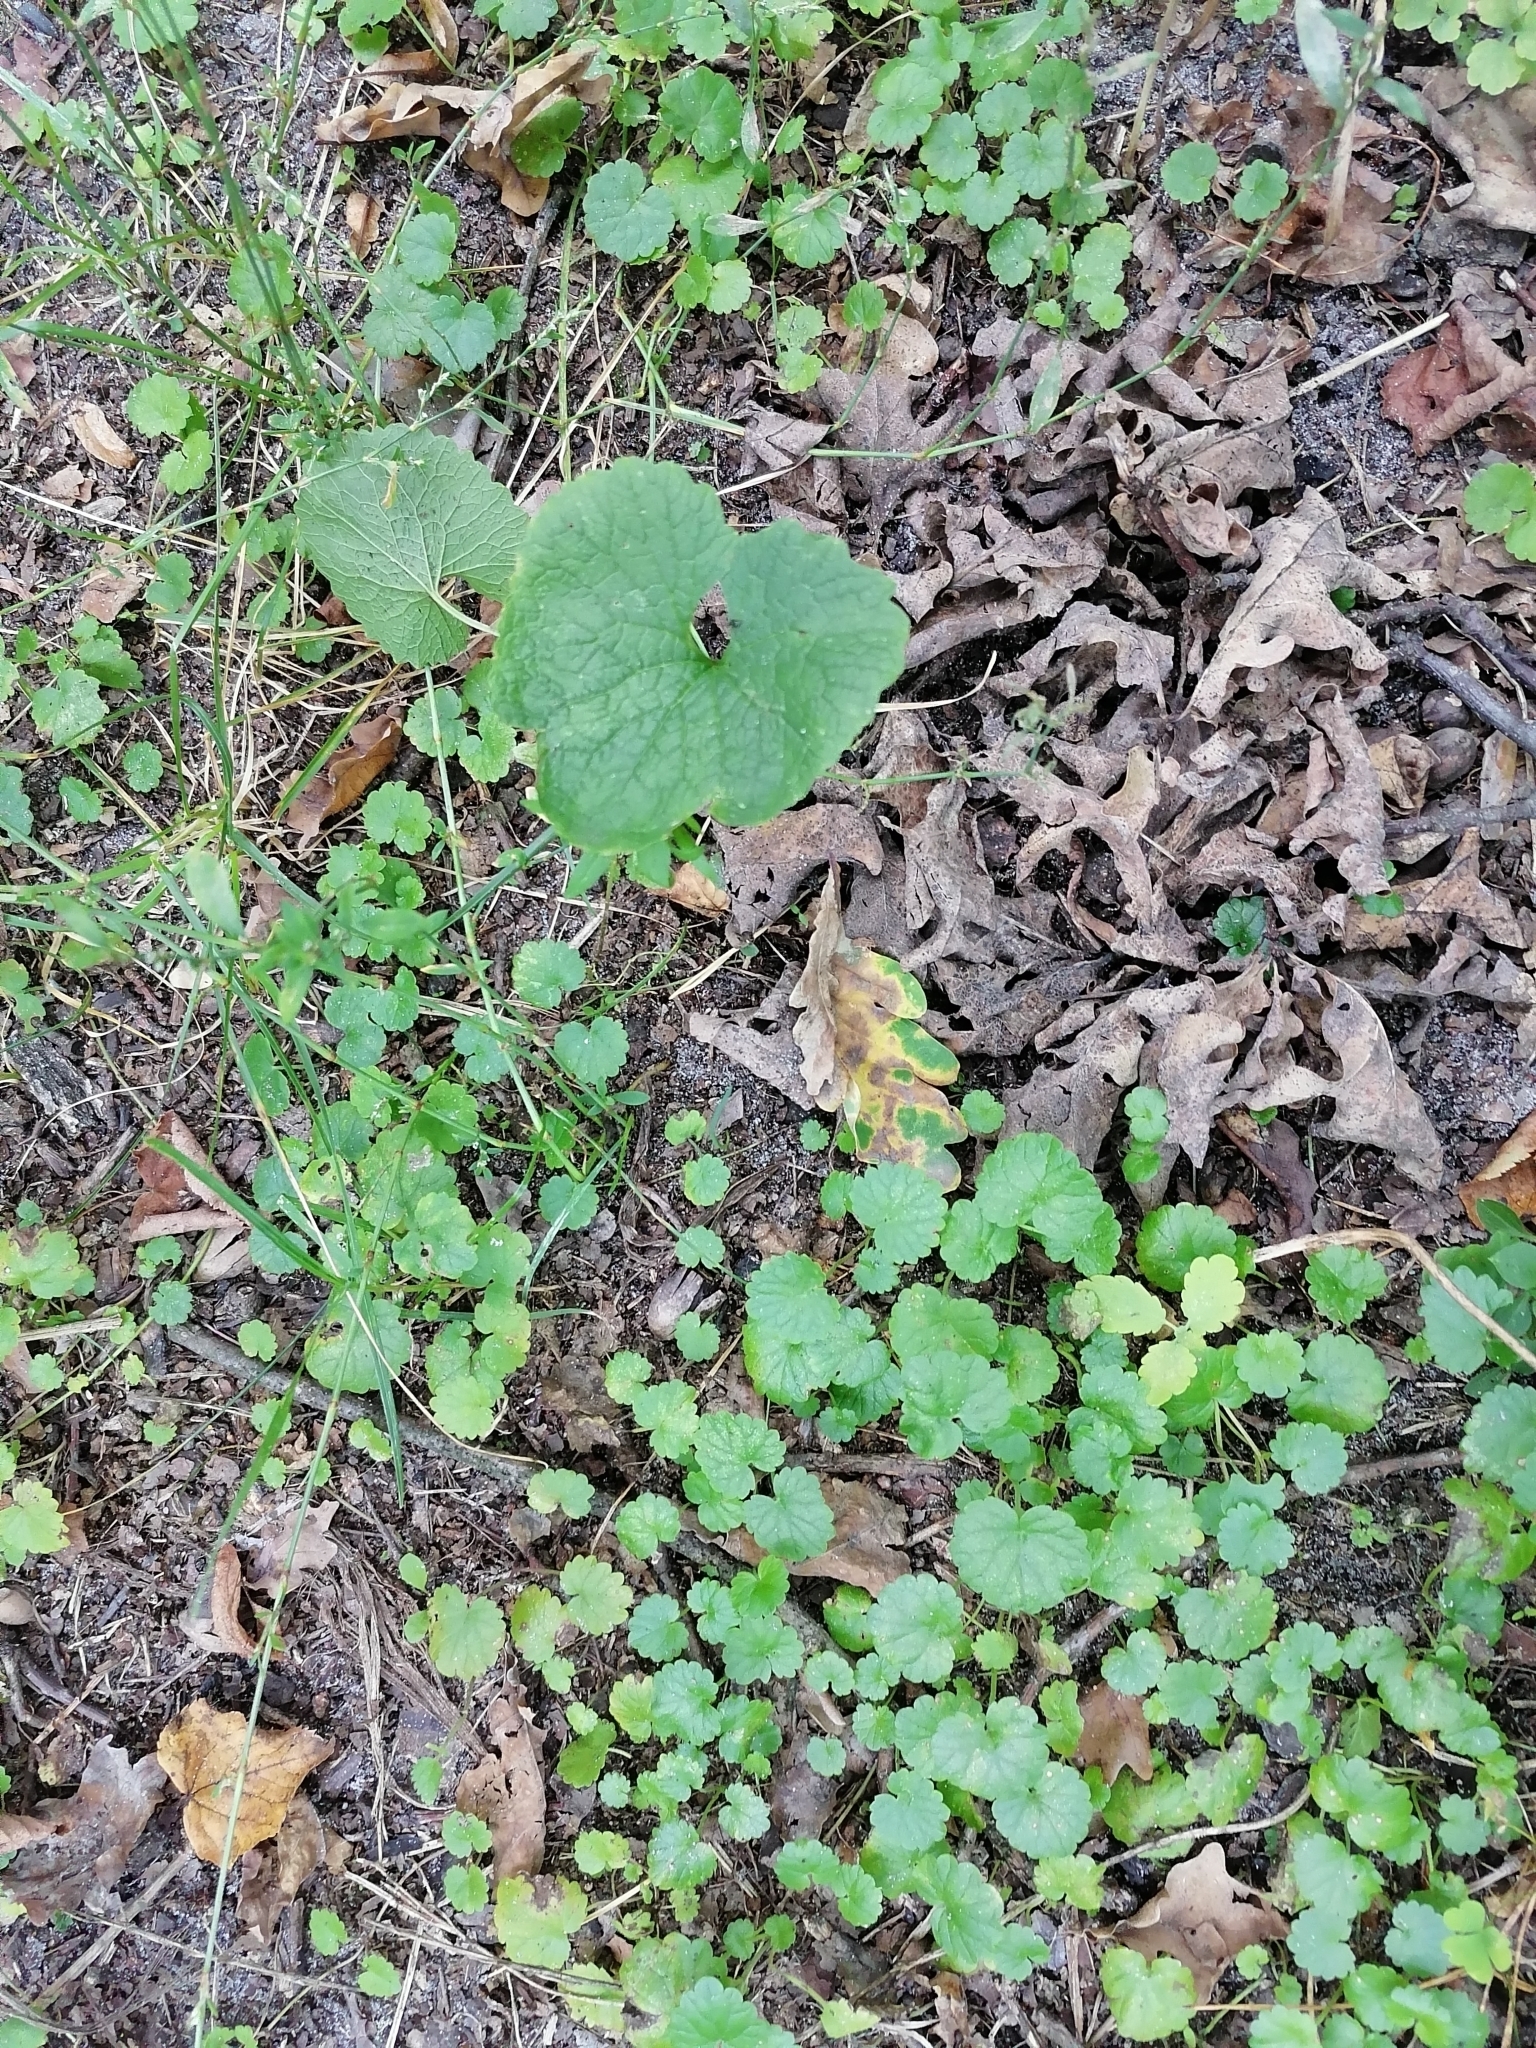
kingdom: Plantae
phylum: Tracheophyta
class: Magnoliopsida
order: Lamiales
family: Lamiaceae
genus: Glechoma
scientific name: Glechoma hederacea
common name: Ground ivy
